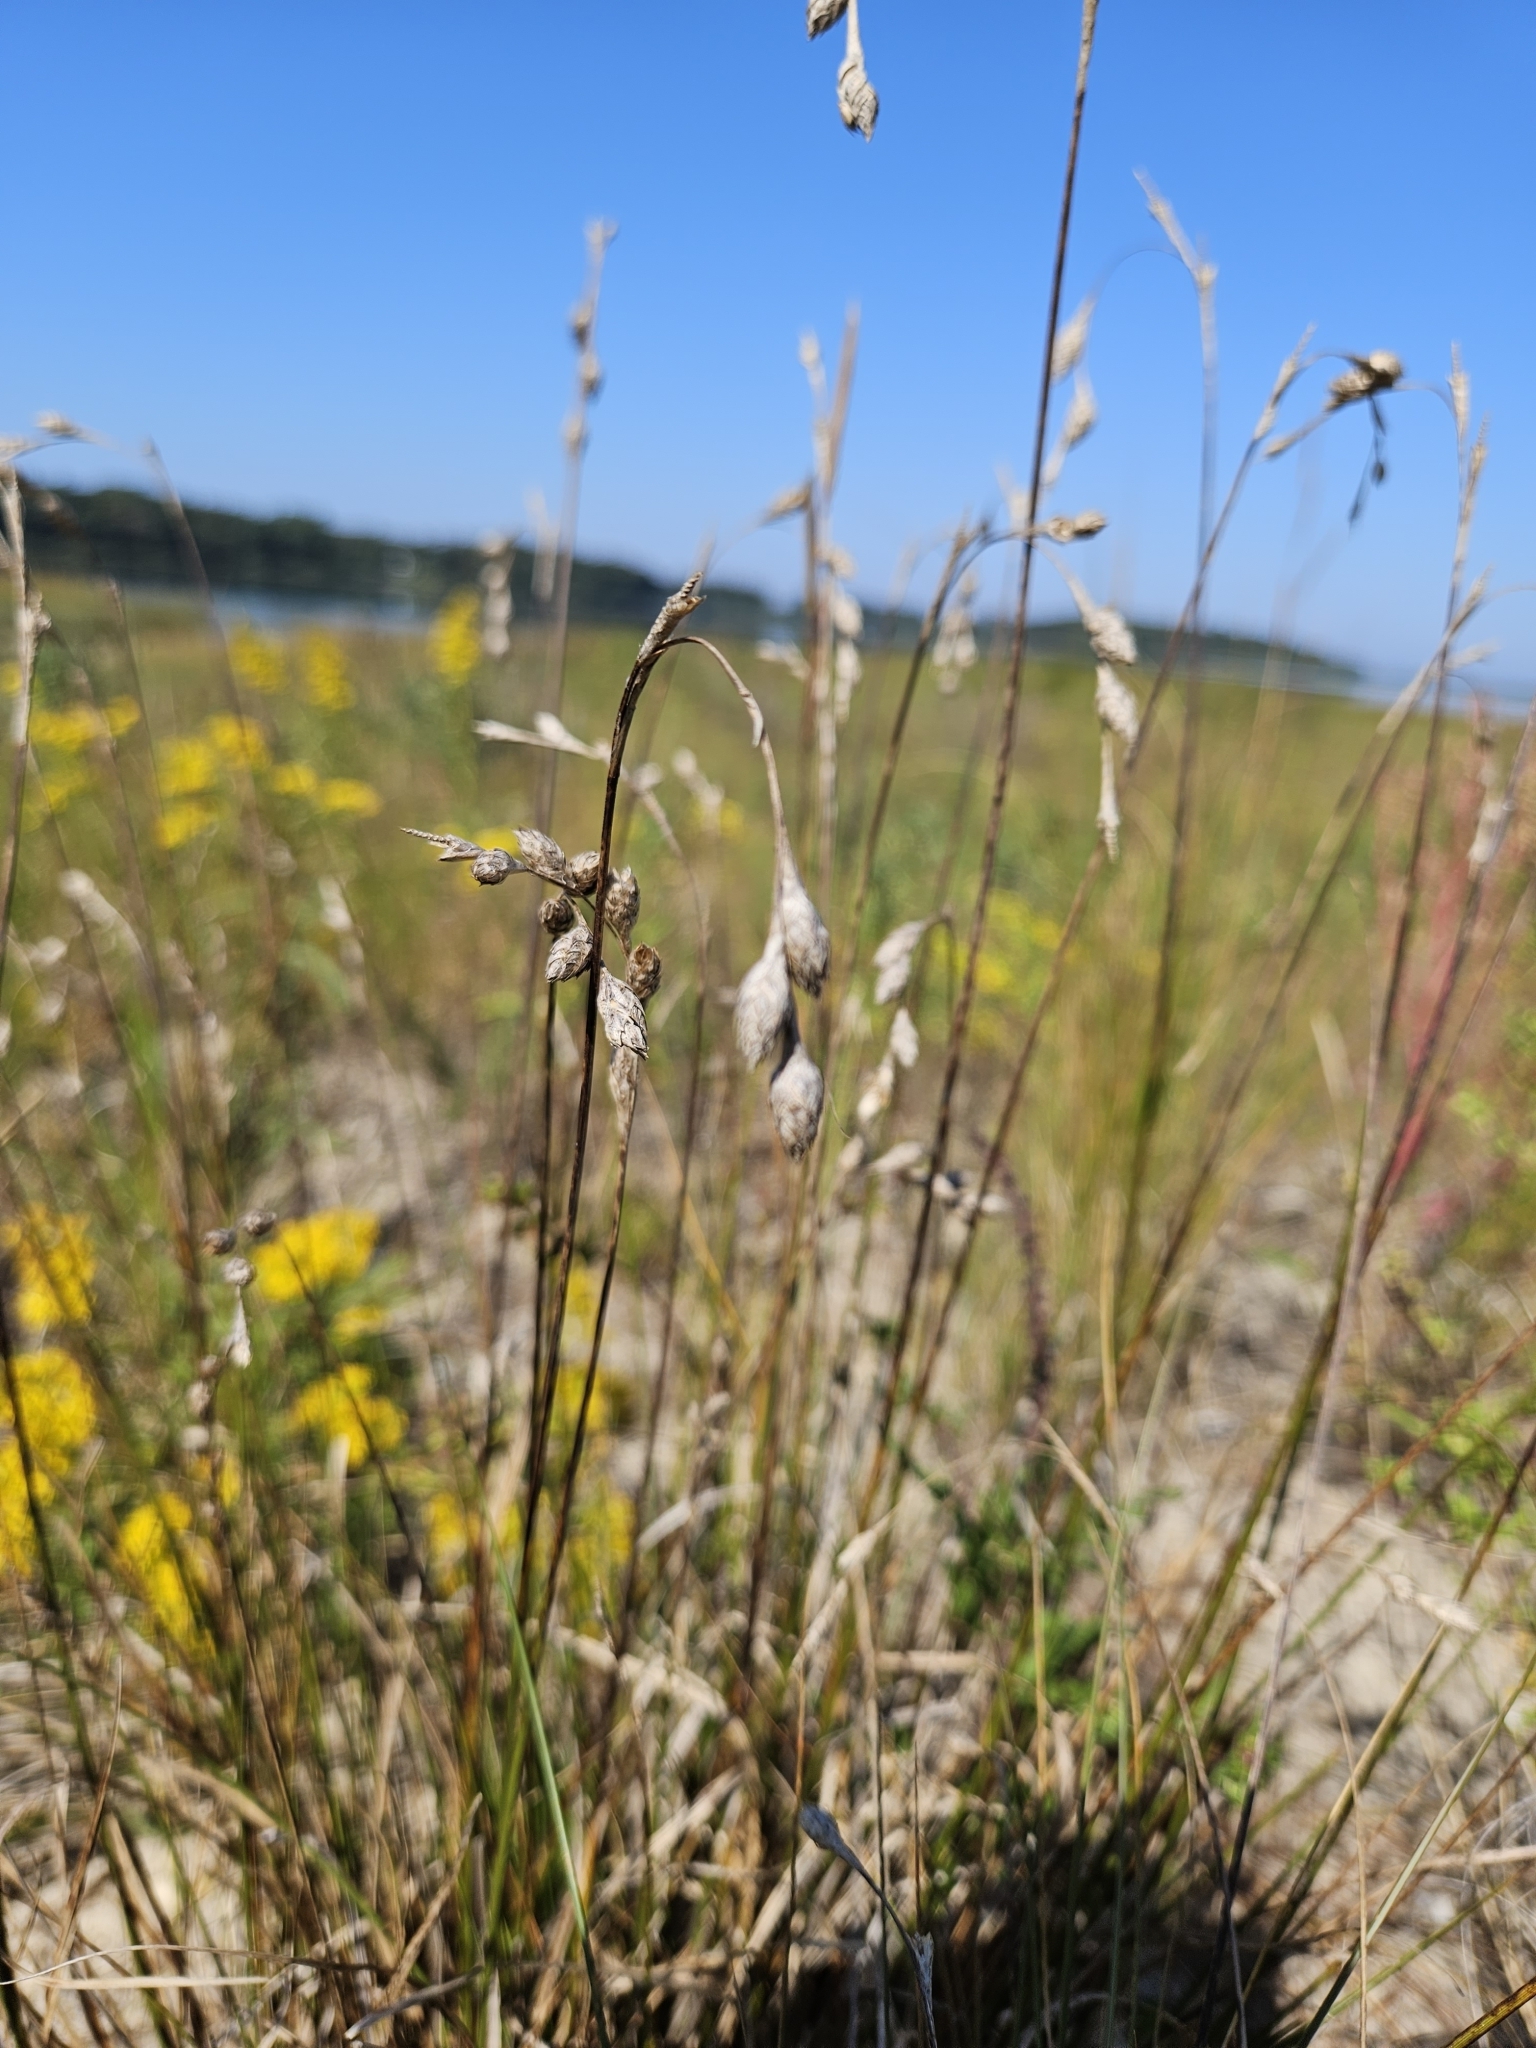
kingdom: Plantae
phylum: Tracheophyta
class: Liliopsida
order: Poales
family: Cyperaceae
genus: Carex
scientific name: Carex silicea
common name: Beach sedge
